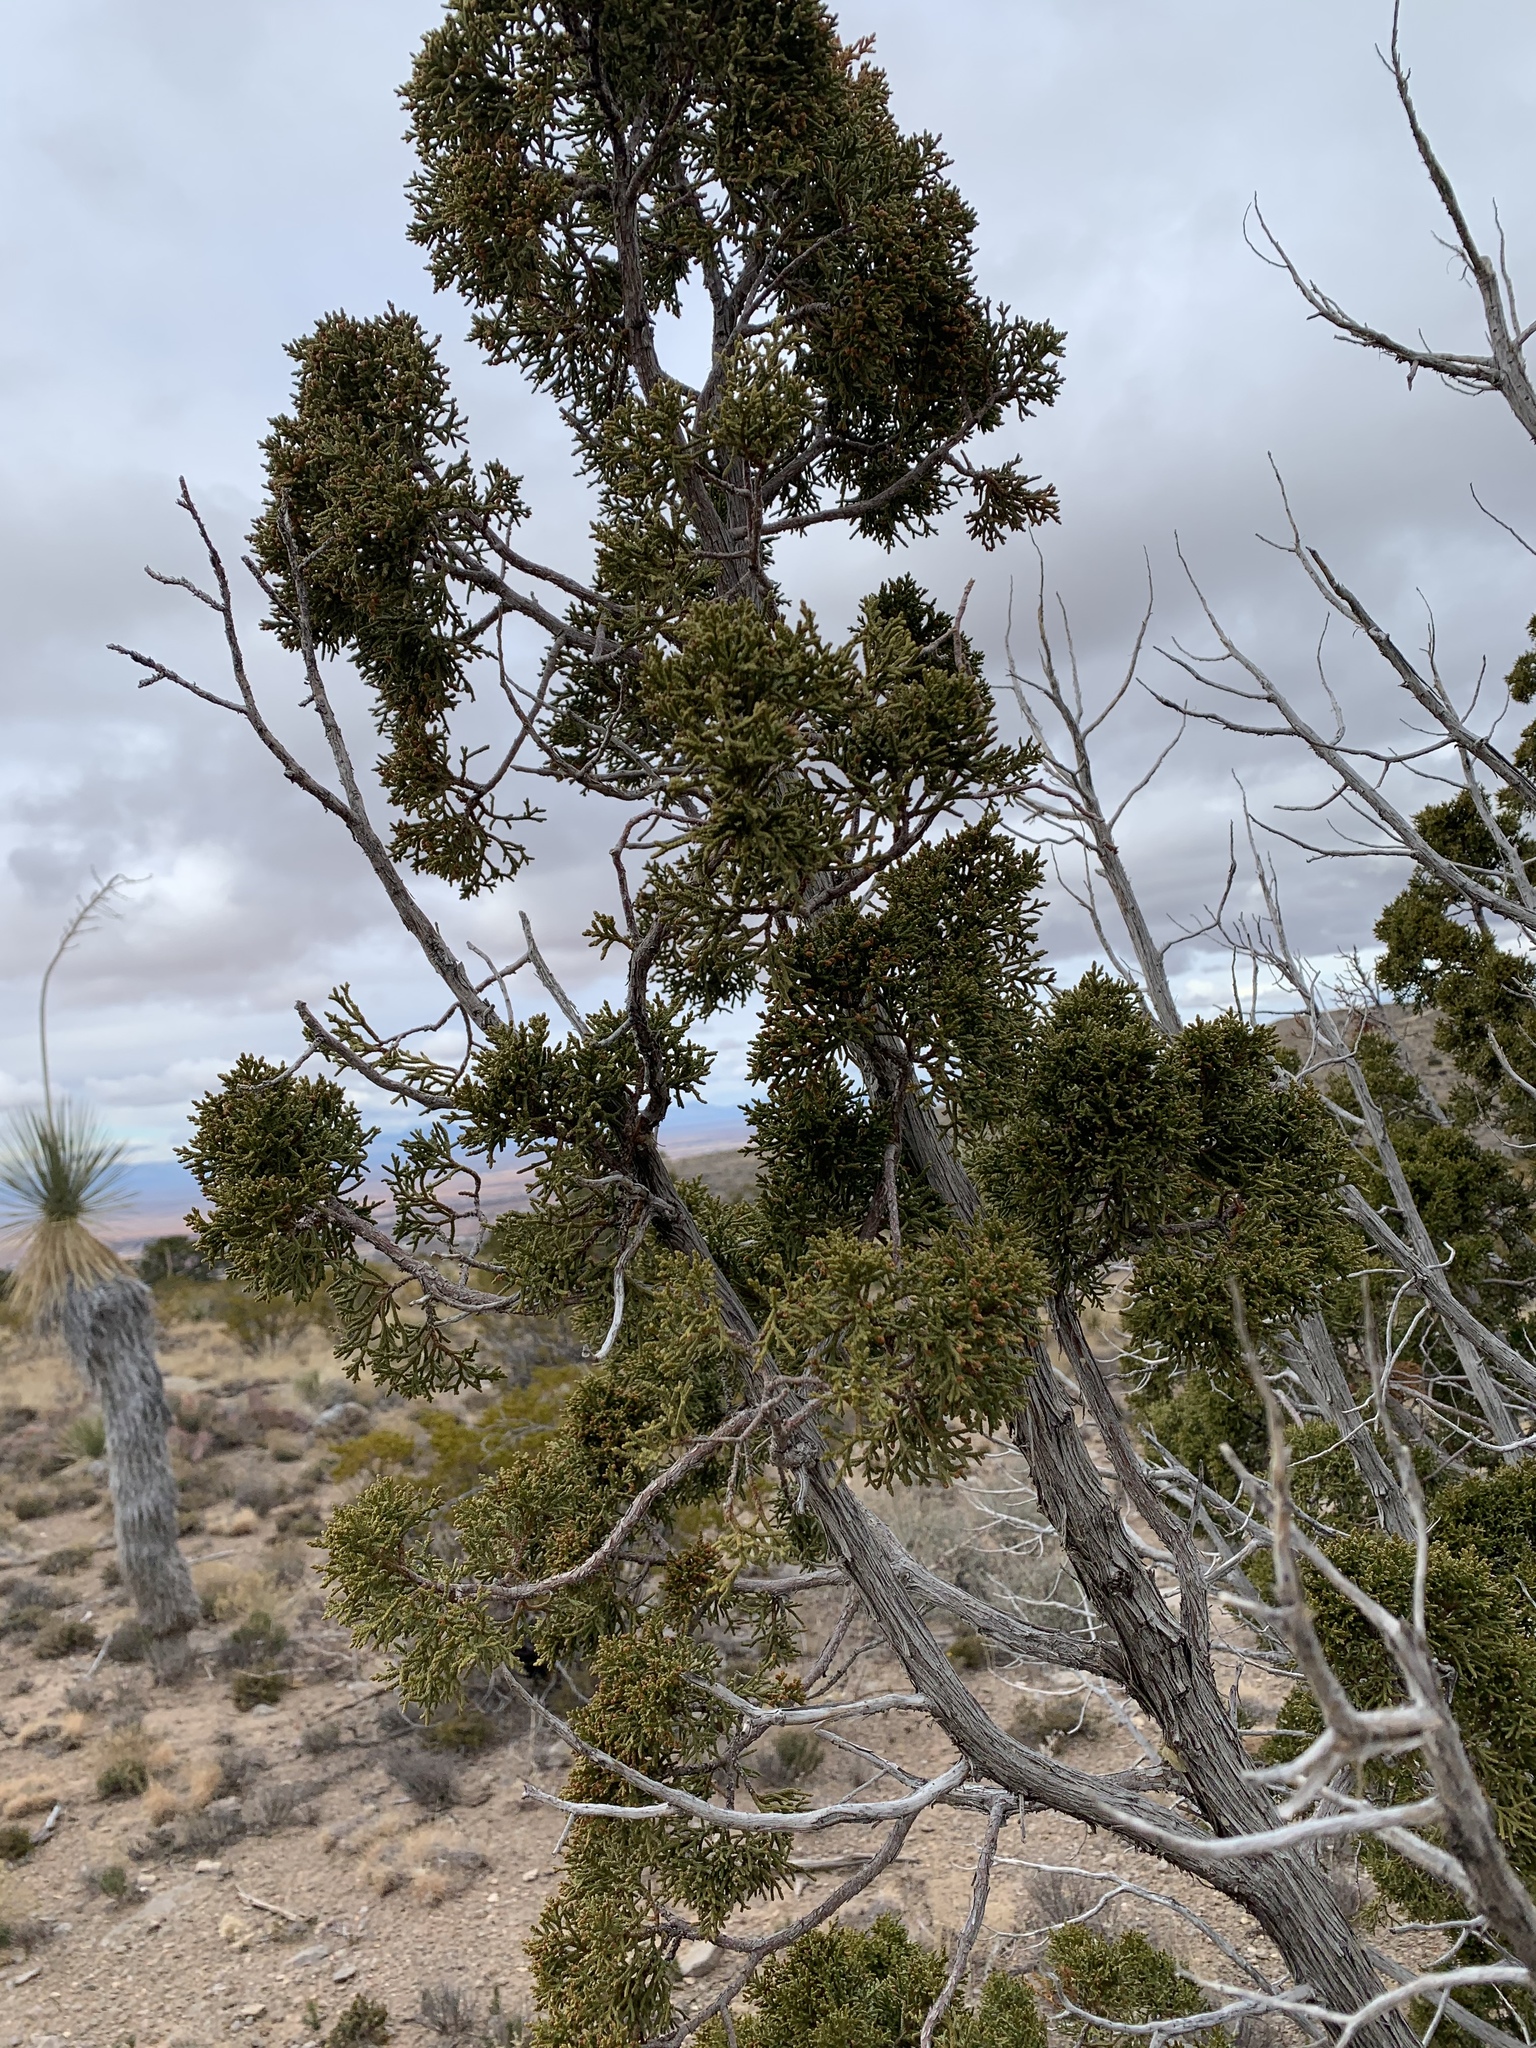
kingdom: Plantae
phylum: Tracheophyta
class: Pinopsida
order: Pinales
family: Cupressaceae
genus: Juniperus
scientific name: Juniperus monosperma
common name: One-seed juniper
